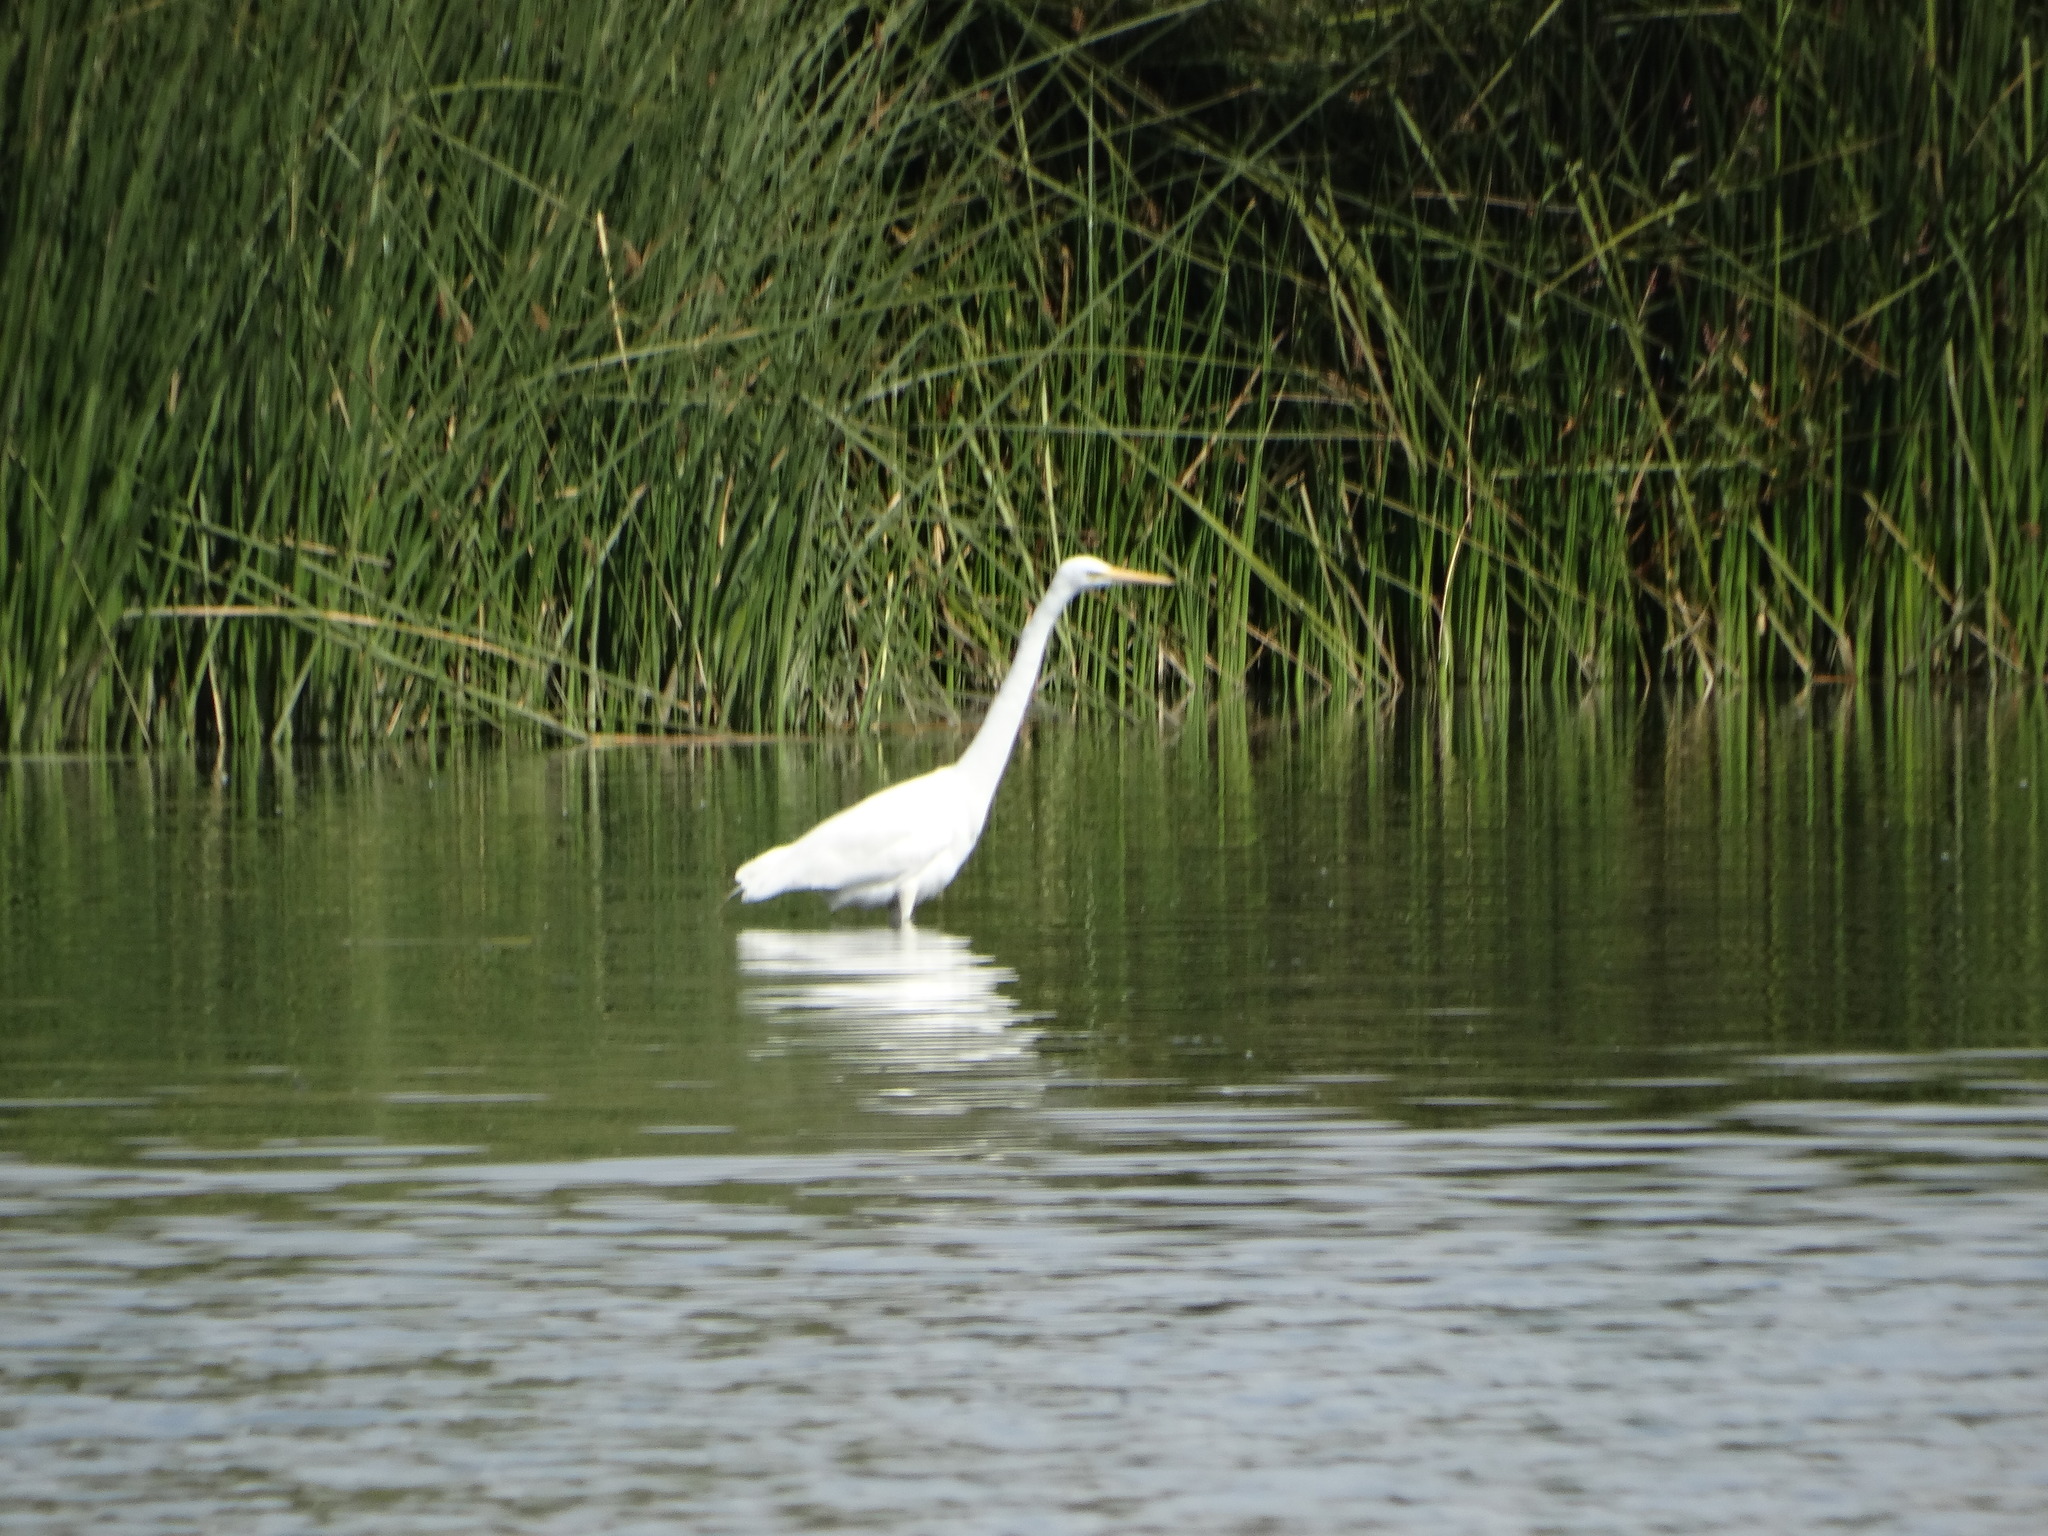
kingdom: Animalia
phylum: Chordata
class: Aves
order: Pelecaniformes
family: Ardeidae
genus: Ardea
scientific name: Ardea alba
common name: Great egret
